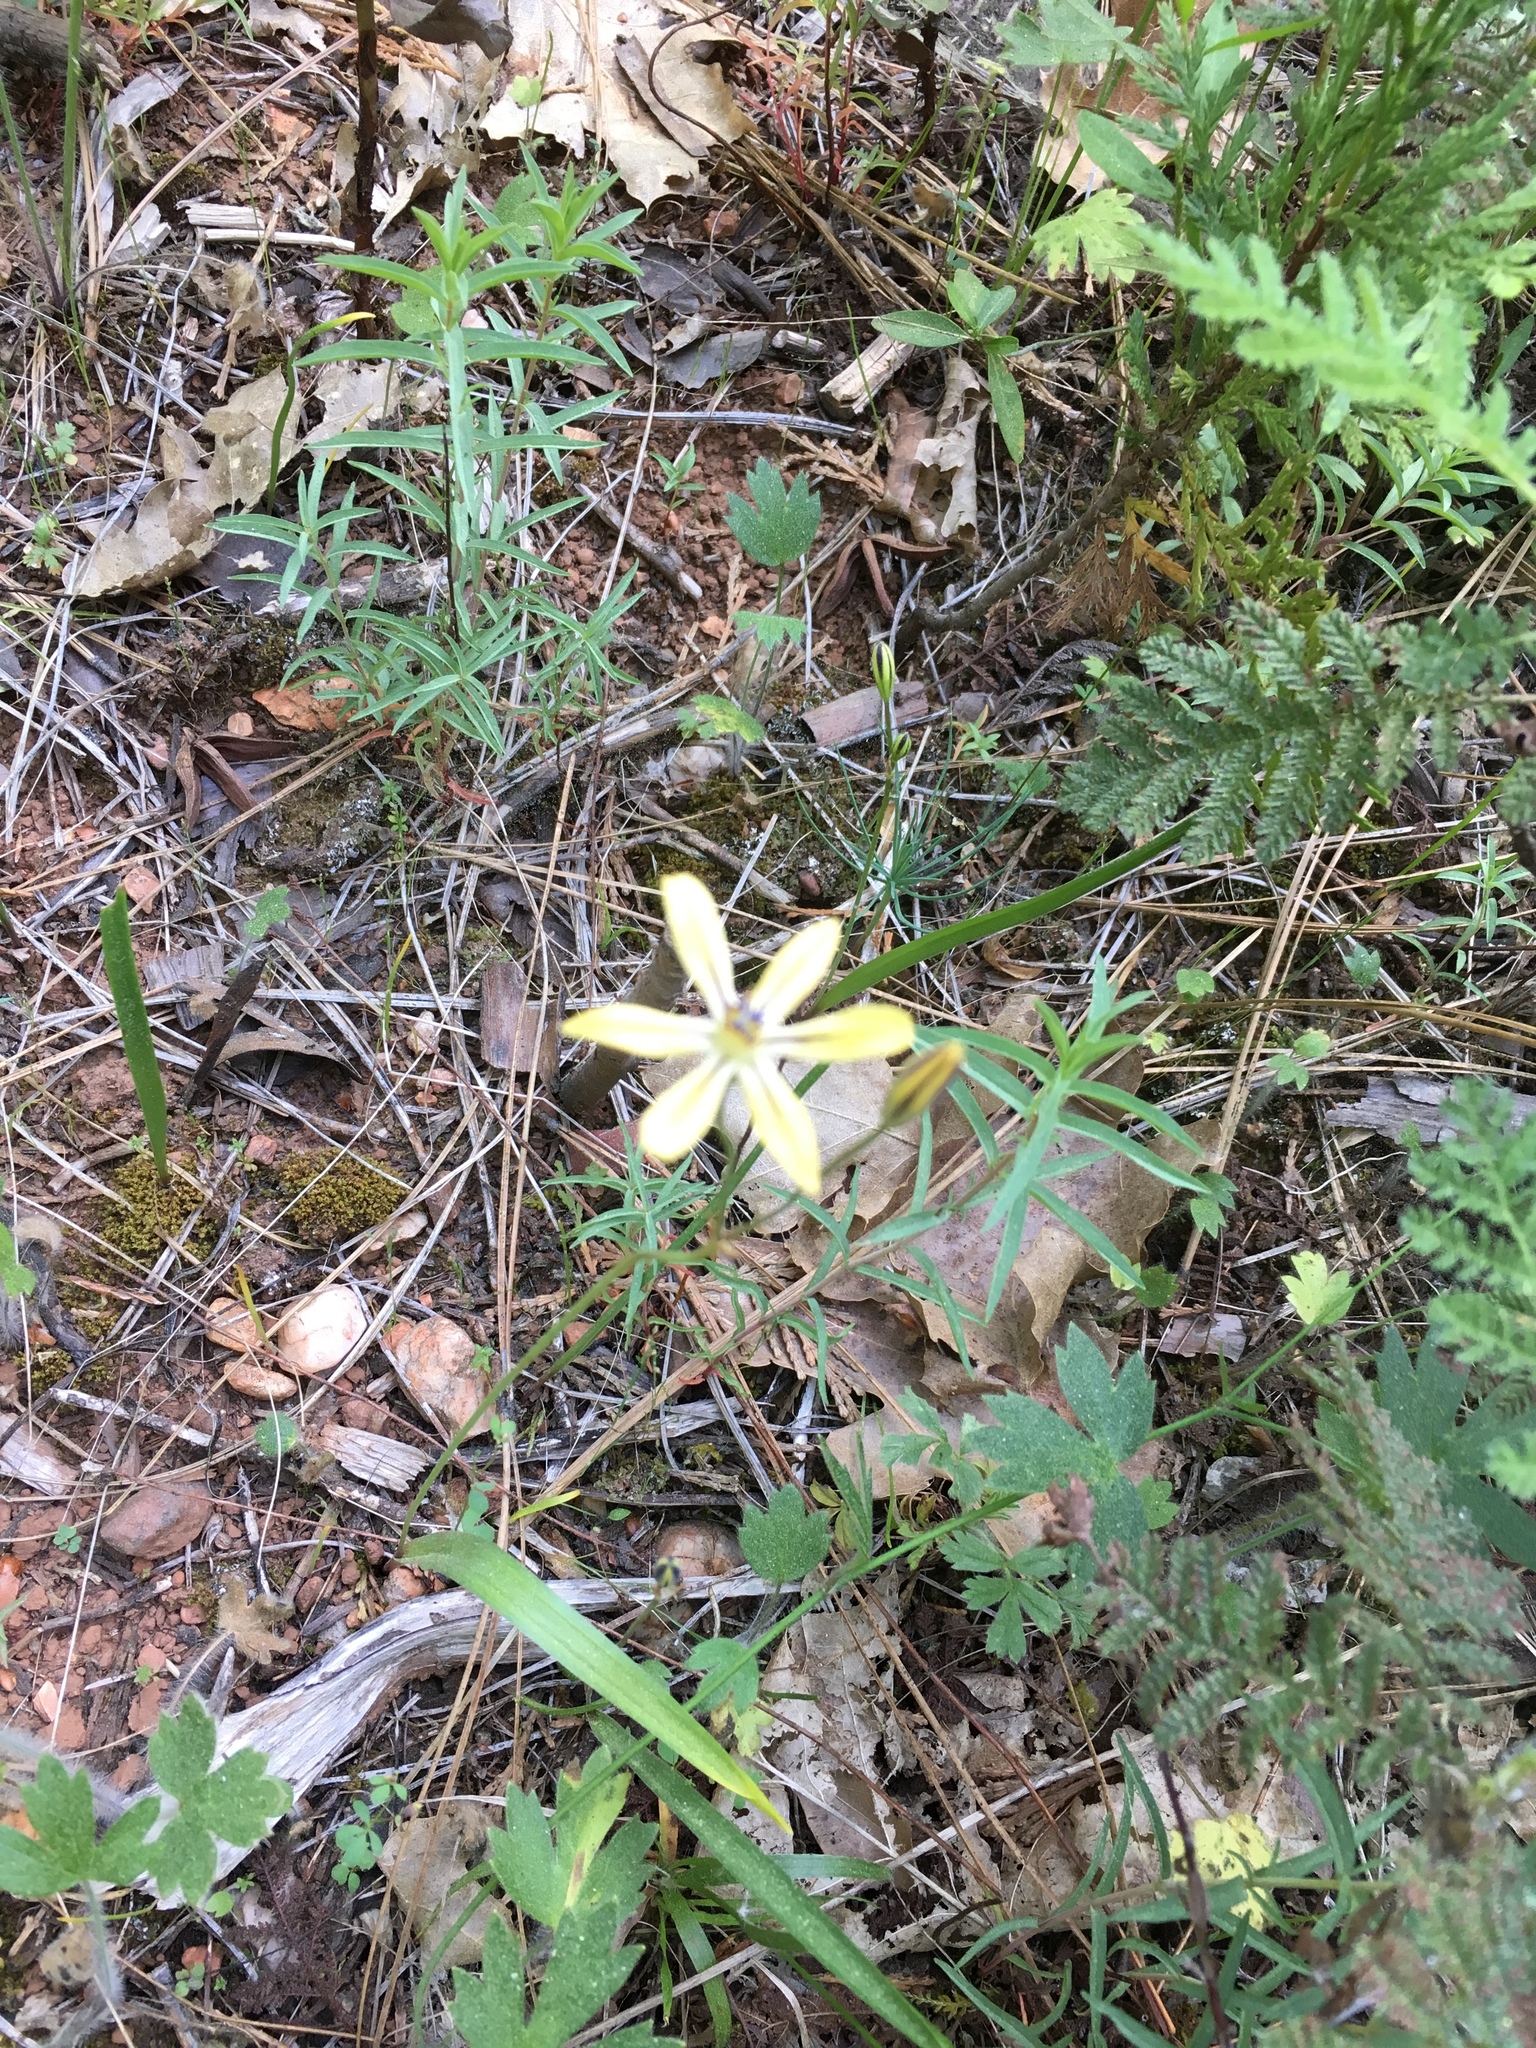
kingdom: Plantae
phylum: Tracheophyta
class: Liliopsida
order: Asparagales
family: Asparagaceae
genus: Triteleia
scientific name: Triteleia ixioides
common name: Yellow-brodiaea
